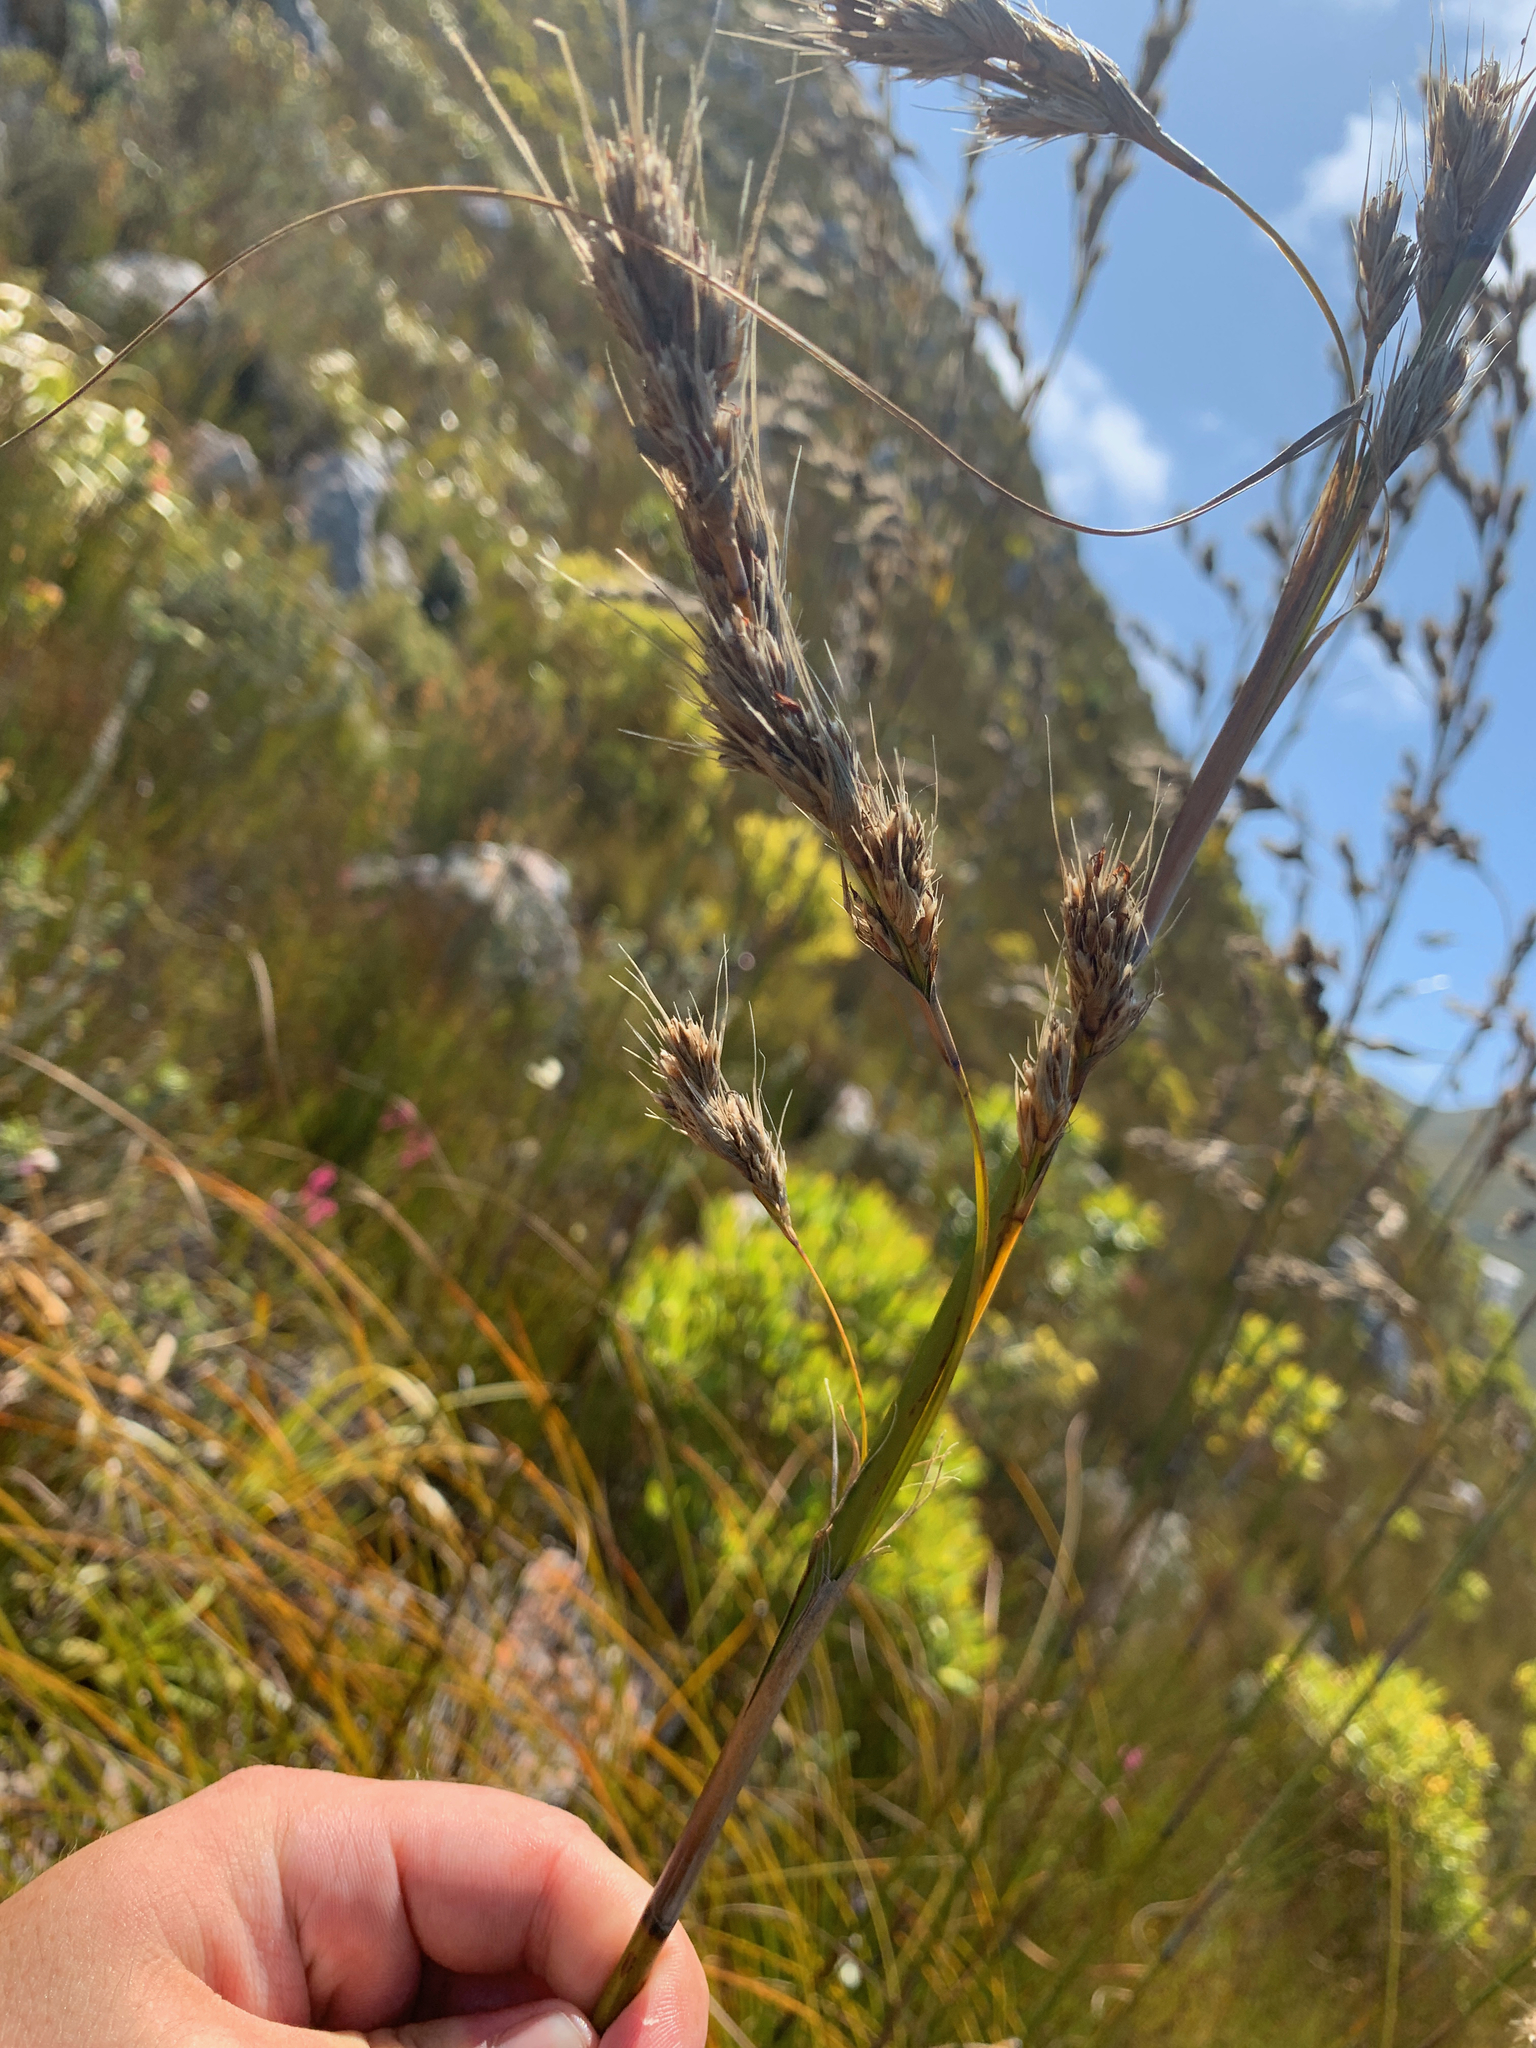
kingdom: Plantae
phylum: Tracheophyta
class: Liliopsida
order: Poales
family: Cyperaceae
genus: Tetraria
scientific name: Tetraria bromoides
